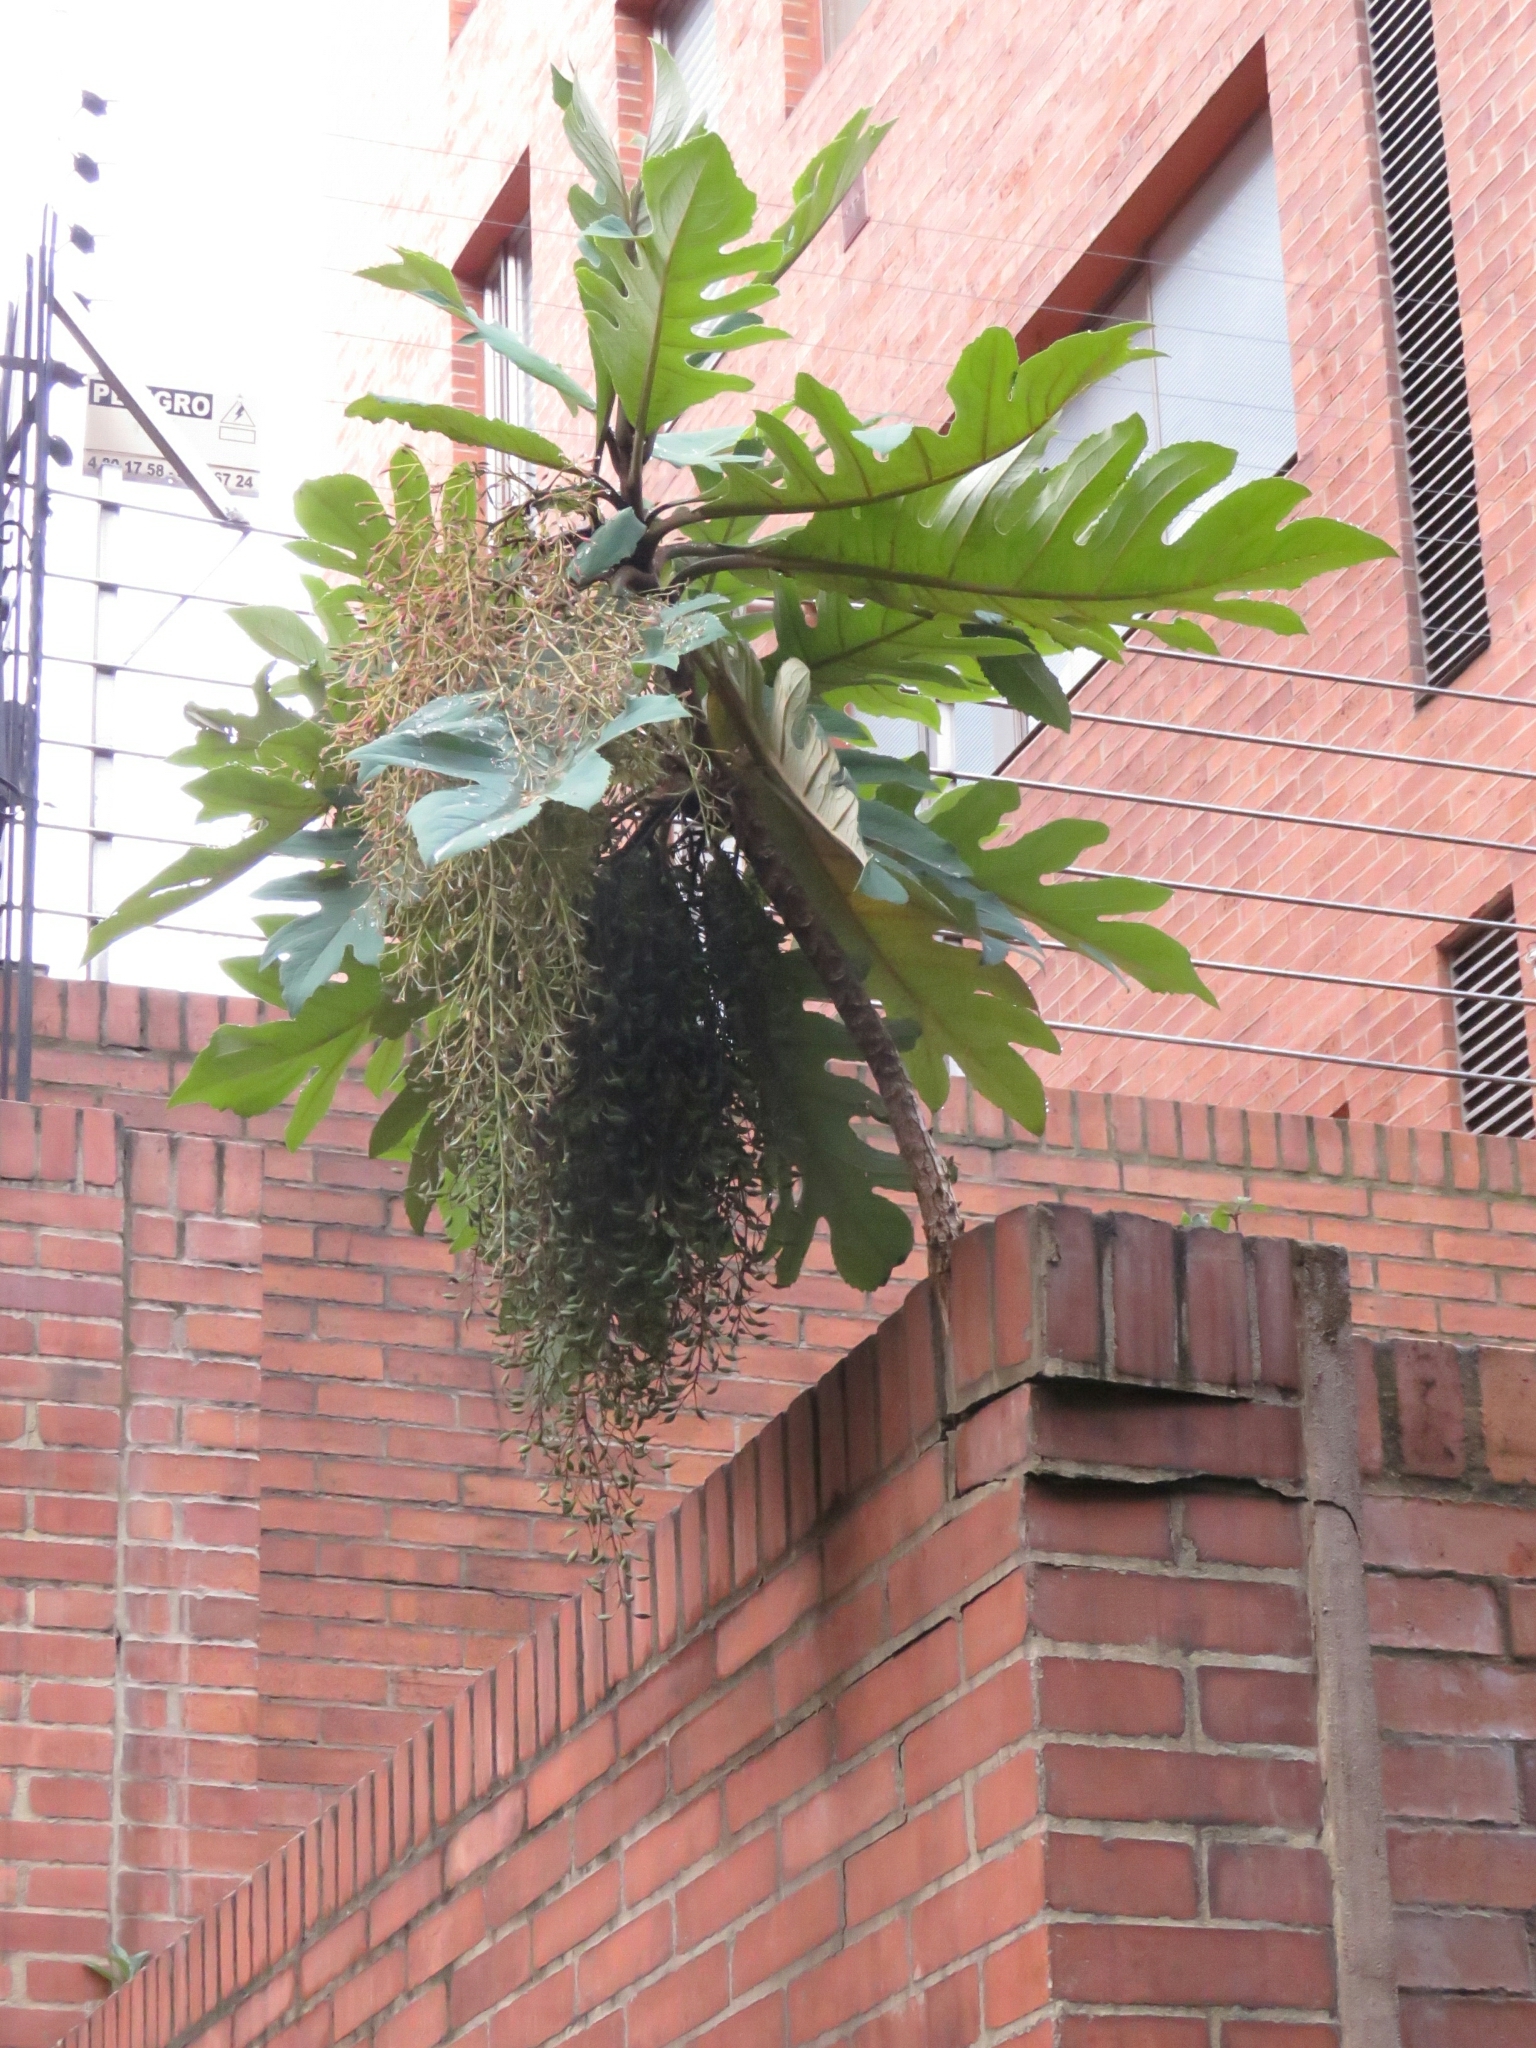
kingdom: Plantae
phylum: Tracheophyta
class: Magnoliopsida
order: Ranunculales
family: Papaveraceae
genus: Bocconia
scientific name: Bocconia frutescens
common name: Tree poppy
